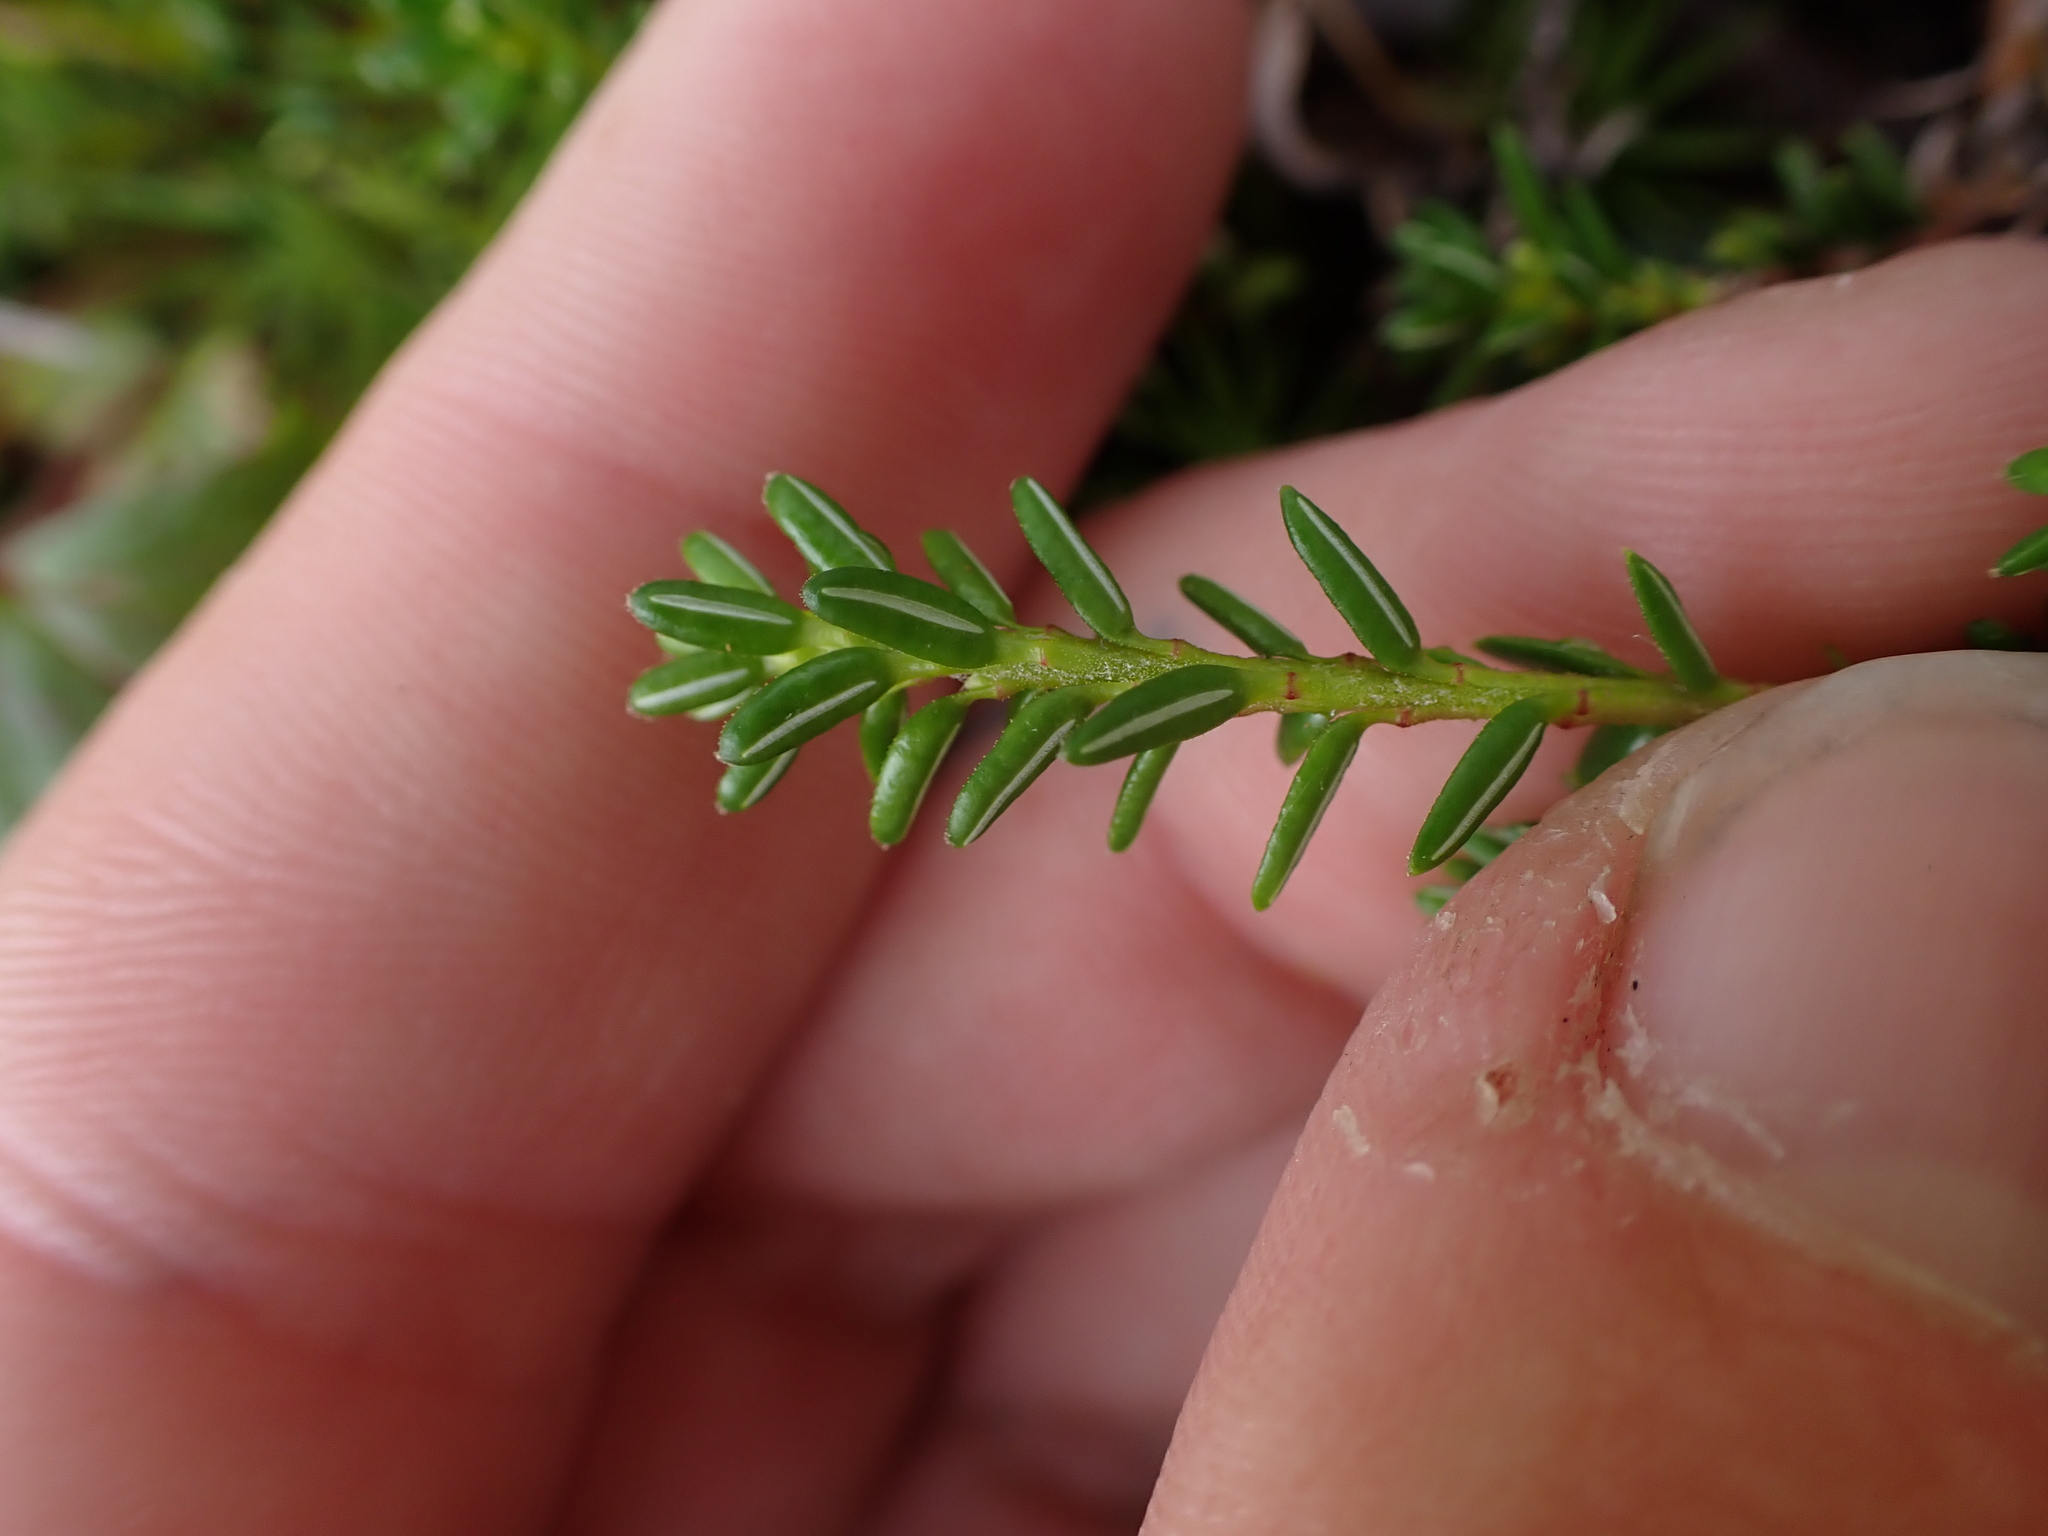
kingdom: Plantae
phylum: Tracheophyta
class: Magnoliopsida
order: Ericales
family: Ericaceae
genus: Empetrum
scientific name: Empetrum nigrum
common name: Black crowberry
